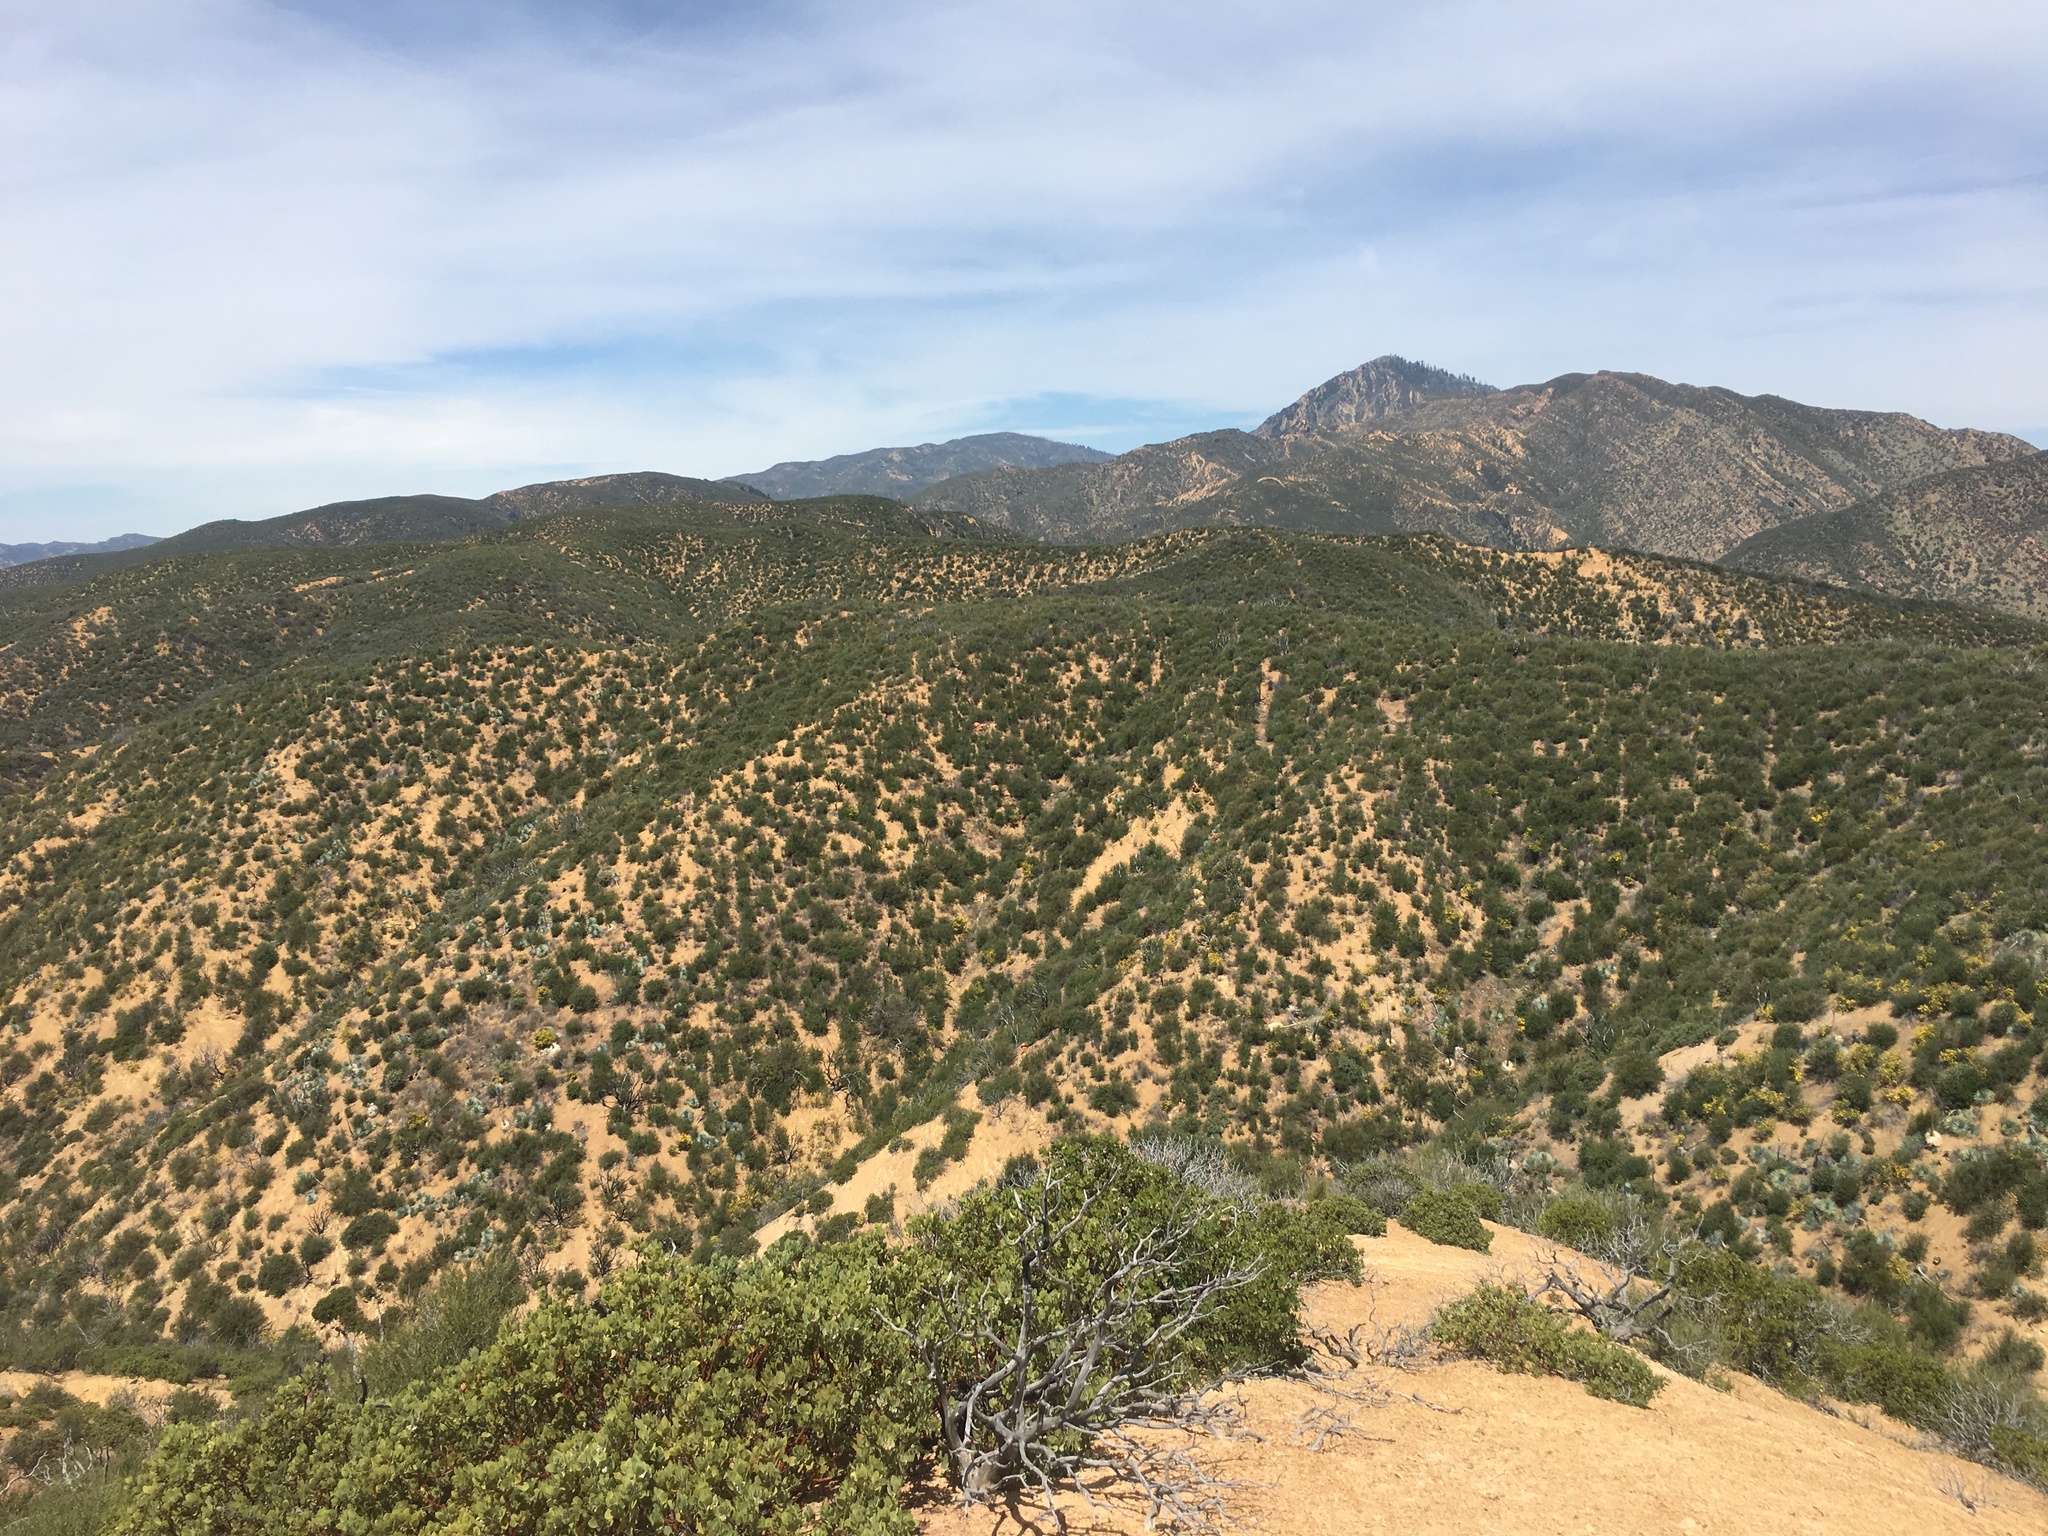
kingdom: Plantae
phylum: Tracheophyta
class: Magnoliopsida
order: Rosales
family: Rosaceae
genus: Adenostoma
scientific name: Adenostoma fasciculatum
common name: Chamise
